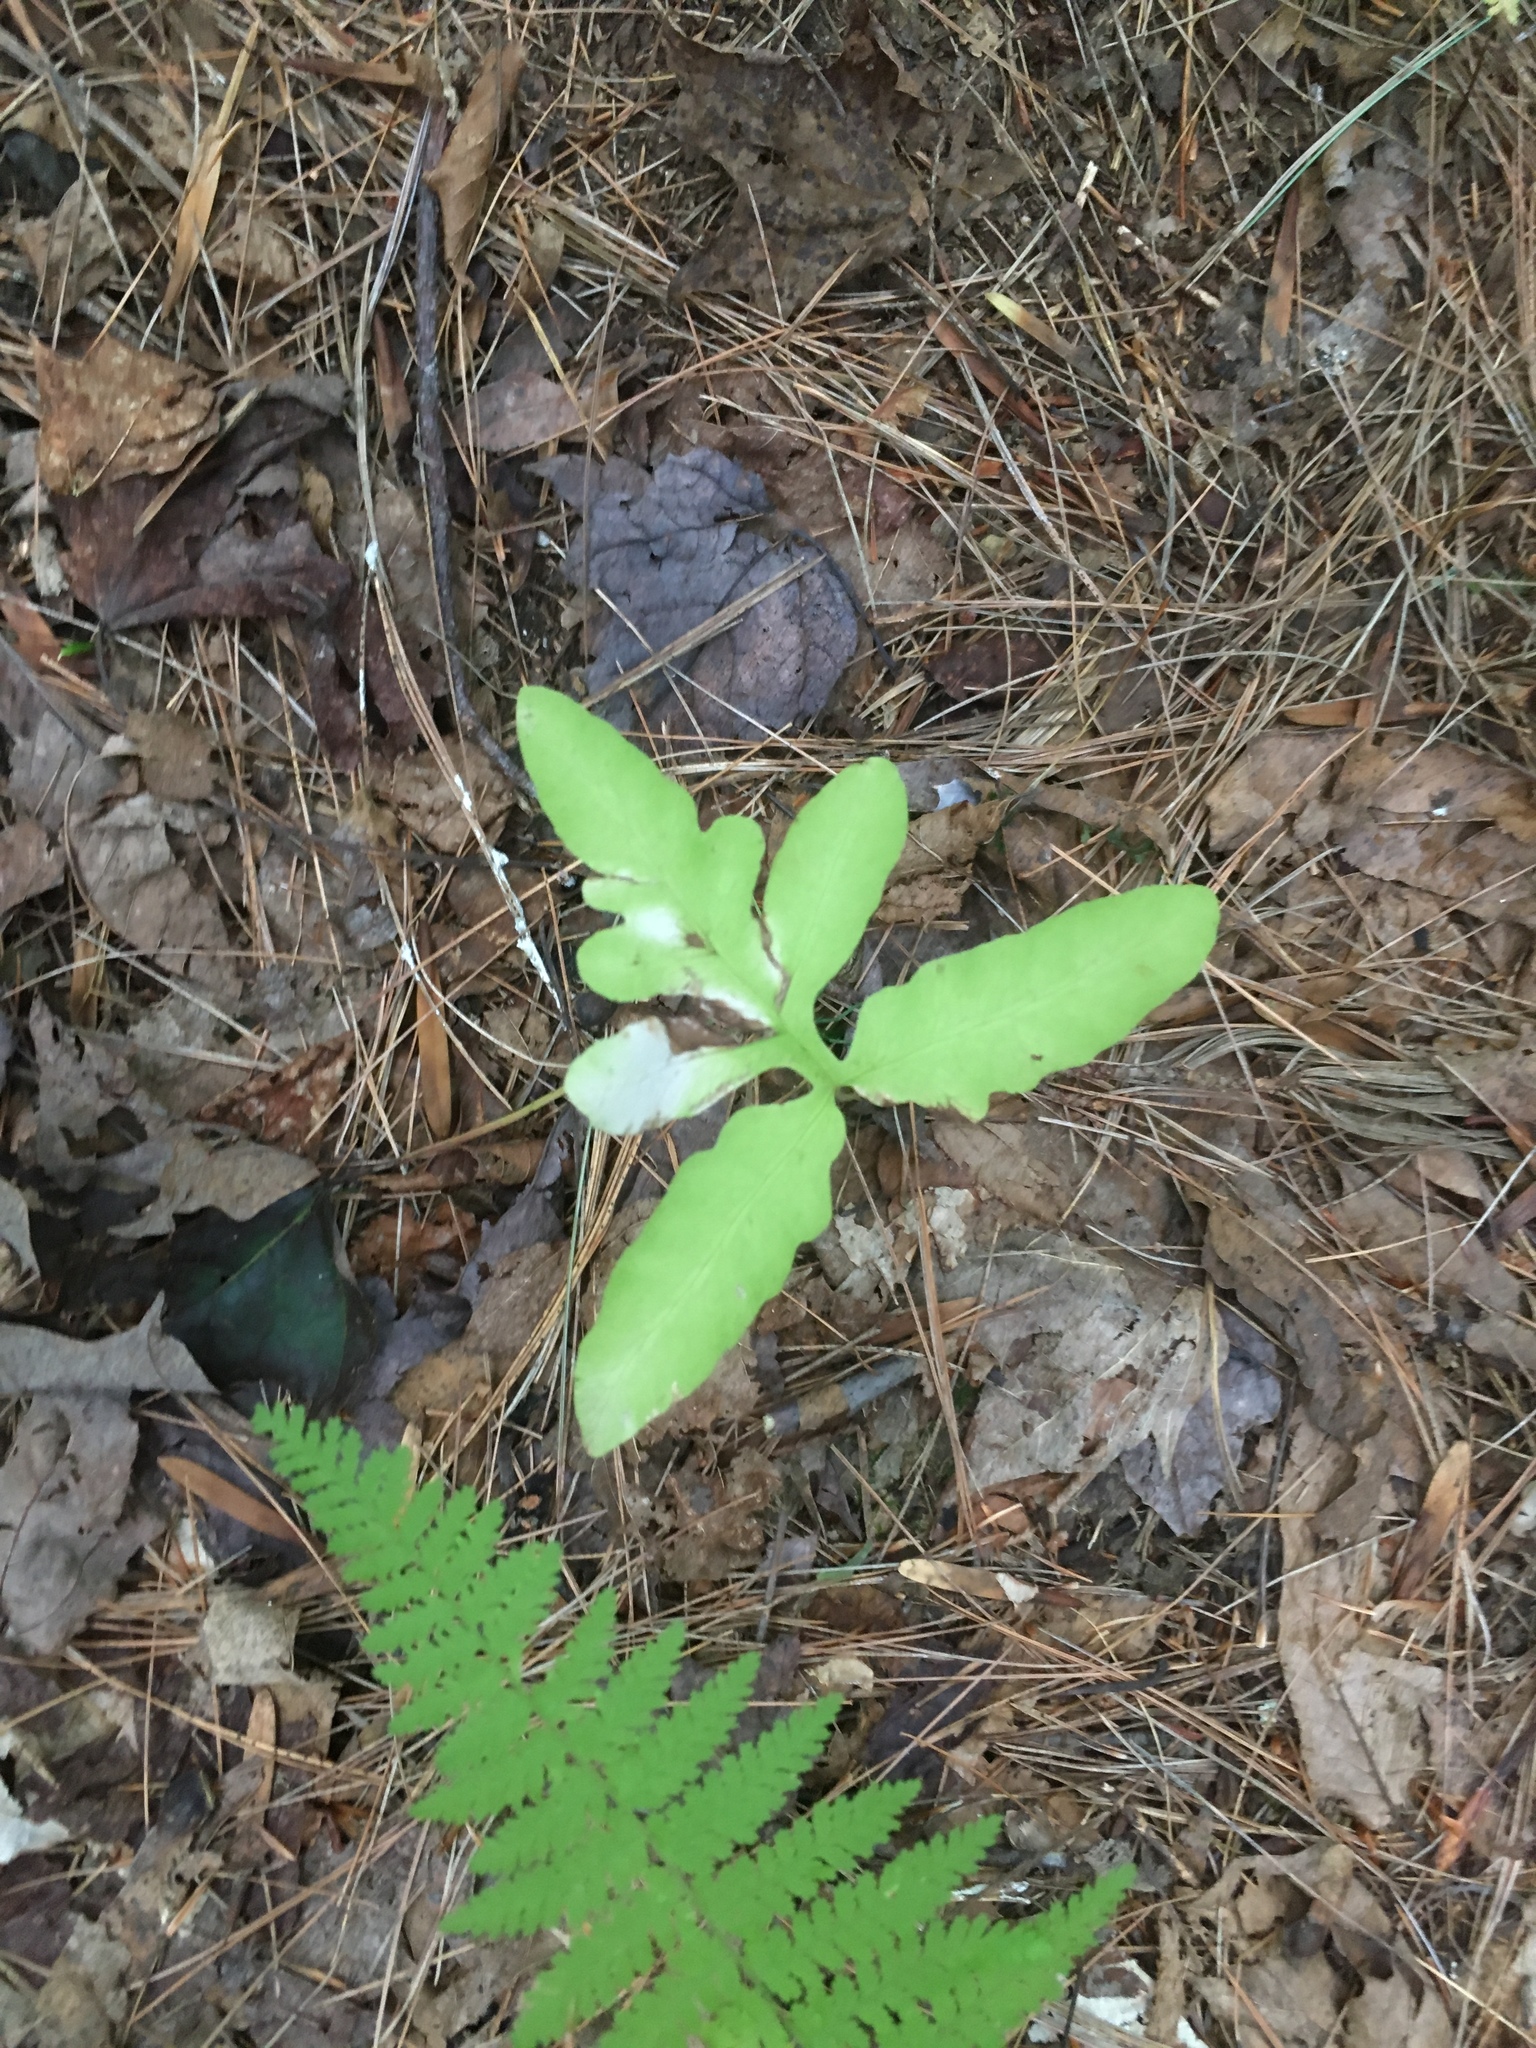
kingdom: Plantae
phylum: Tracheophyta
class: Polypodiopsida
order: Polypodiales
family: Onocleaceae
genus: Onoclea
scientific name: Onoclea sensibilis
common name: Sensitive fern
